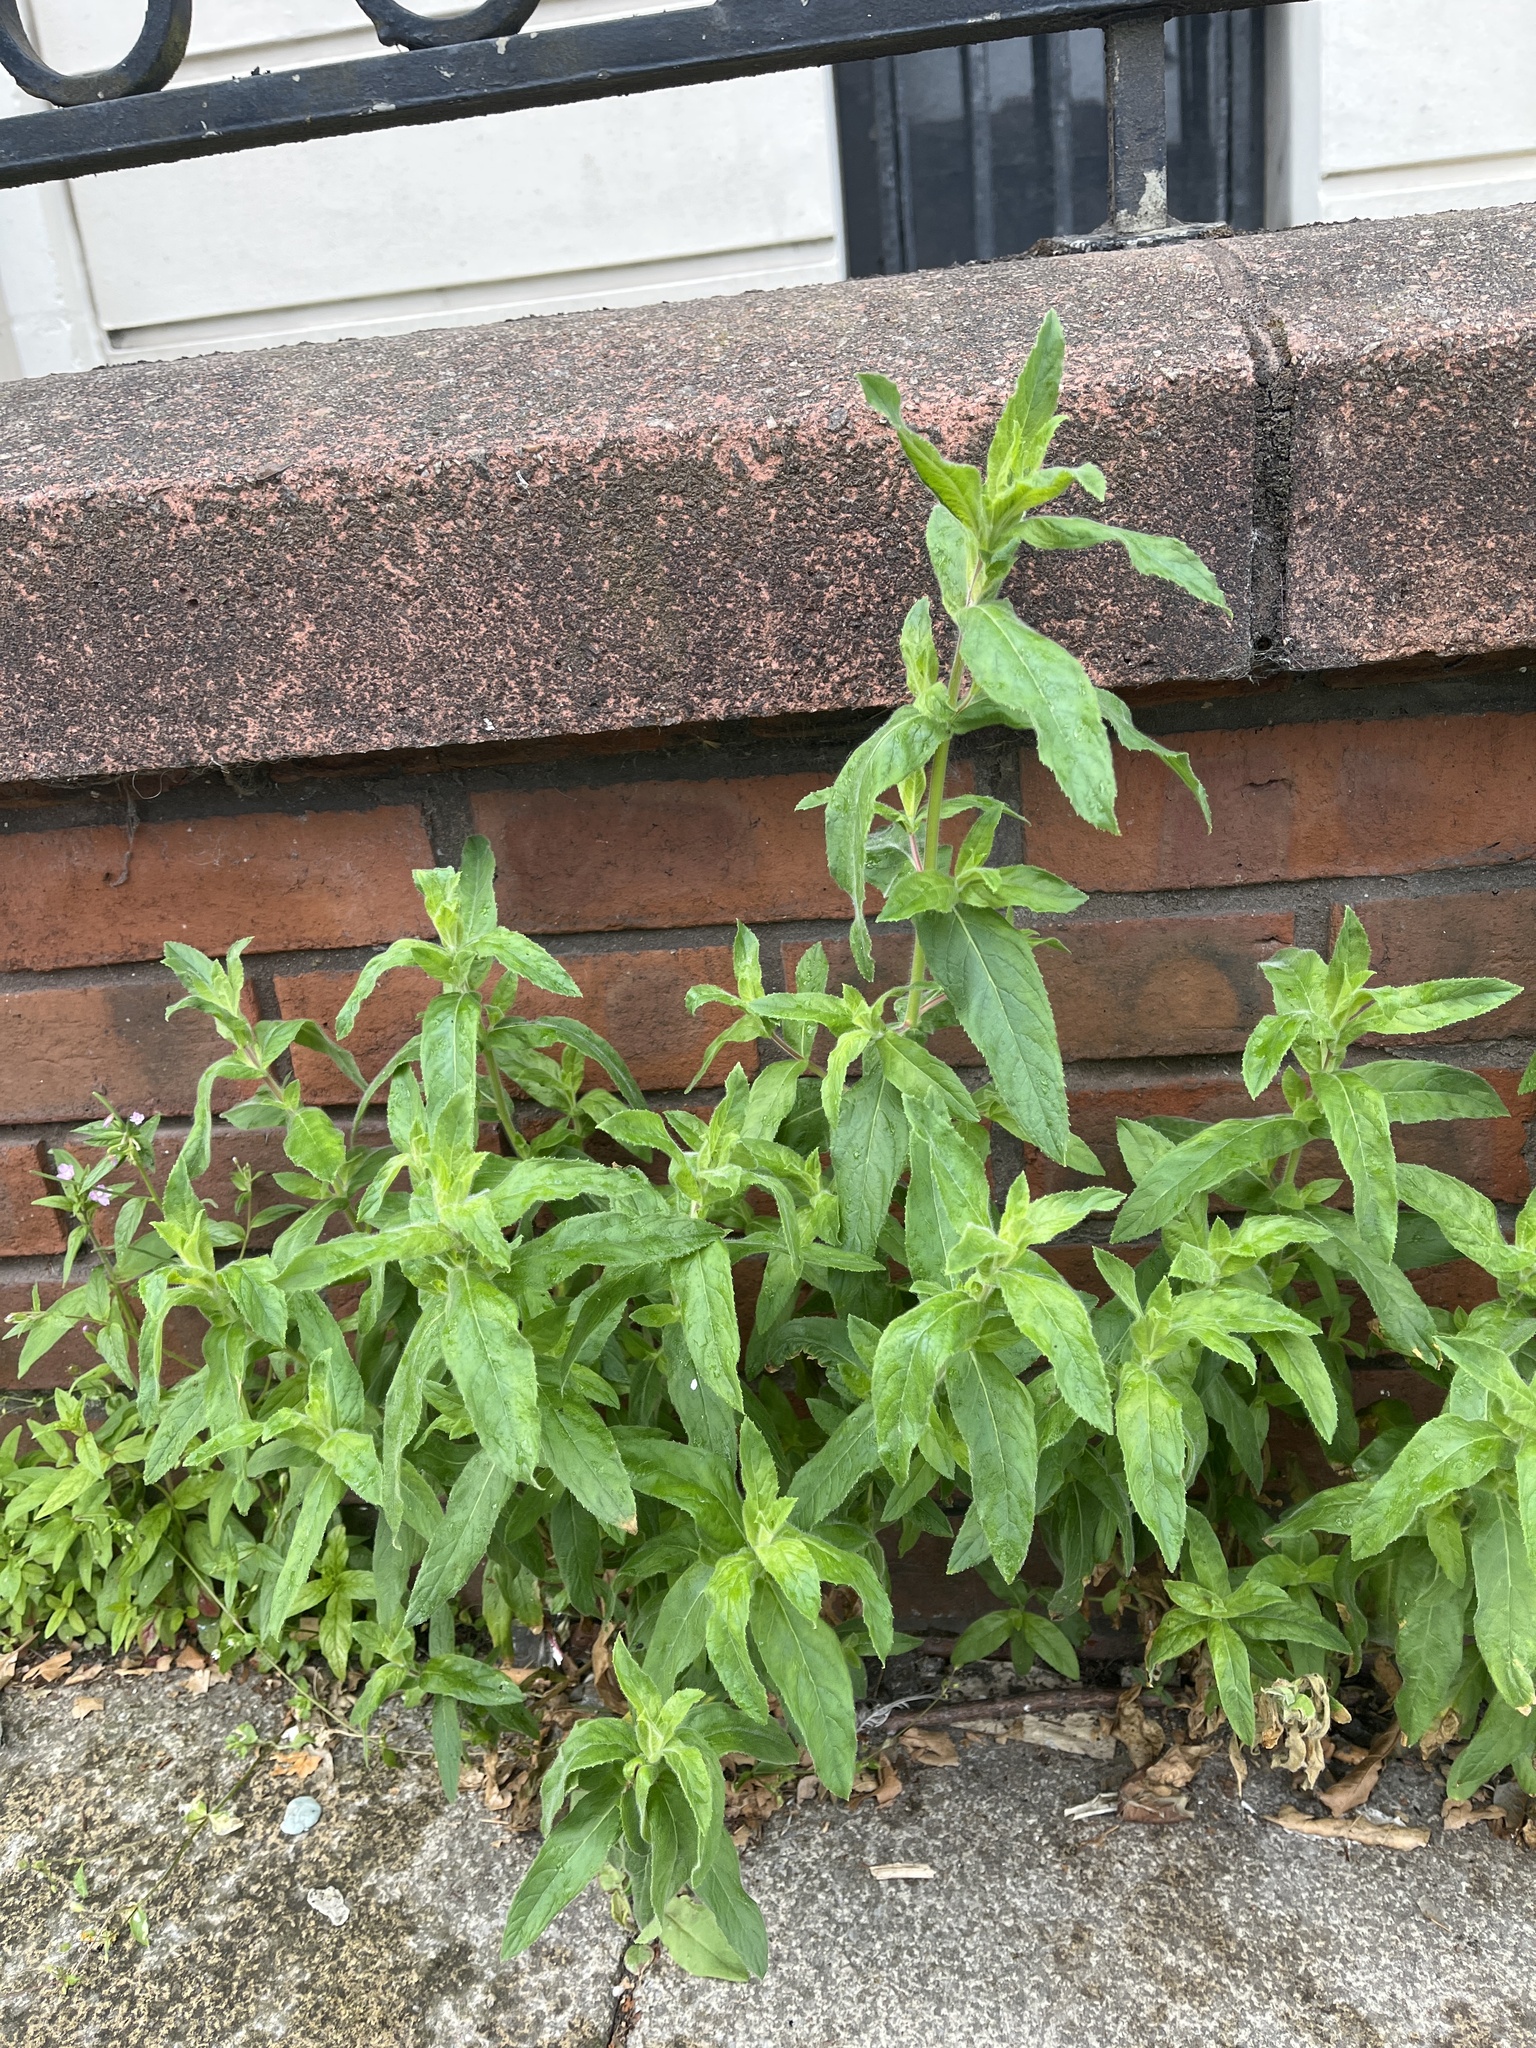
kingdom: Plantae
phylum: Tracheophyta
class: Magnoliopsida
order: Myrtales
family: Onagraceae
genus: Epilobium
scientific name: Epilobium hirsutum
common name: Great willowherb
